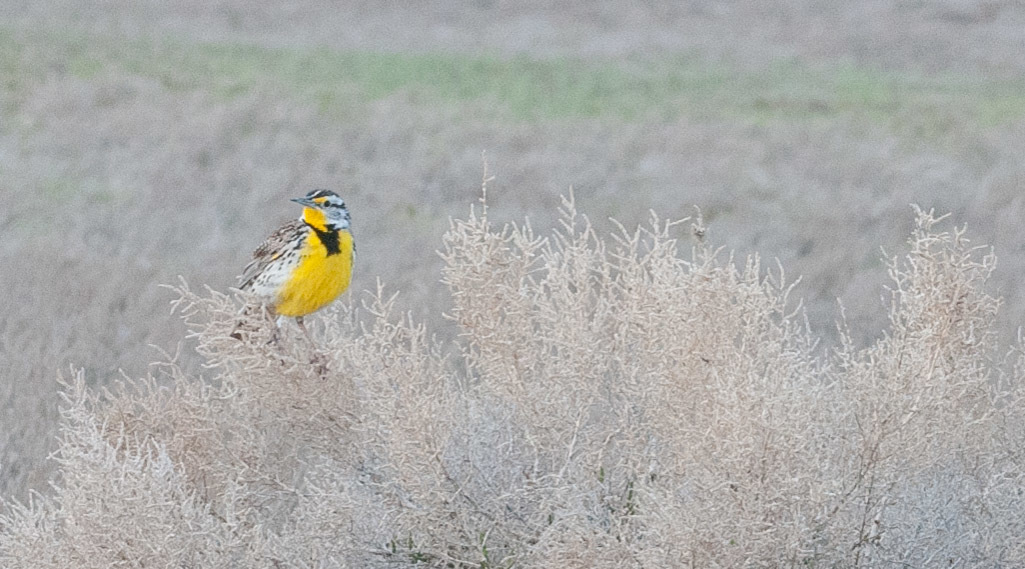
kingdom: Animalia
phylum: Chordata
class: Aves
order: Passeriformes
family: Icteridae
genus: Sturnella
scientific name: Sturnella neglecta
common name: Western meadowlark
